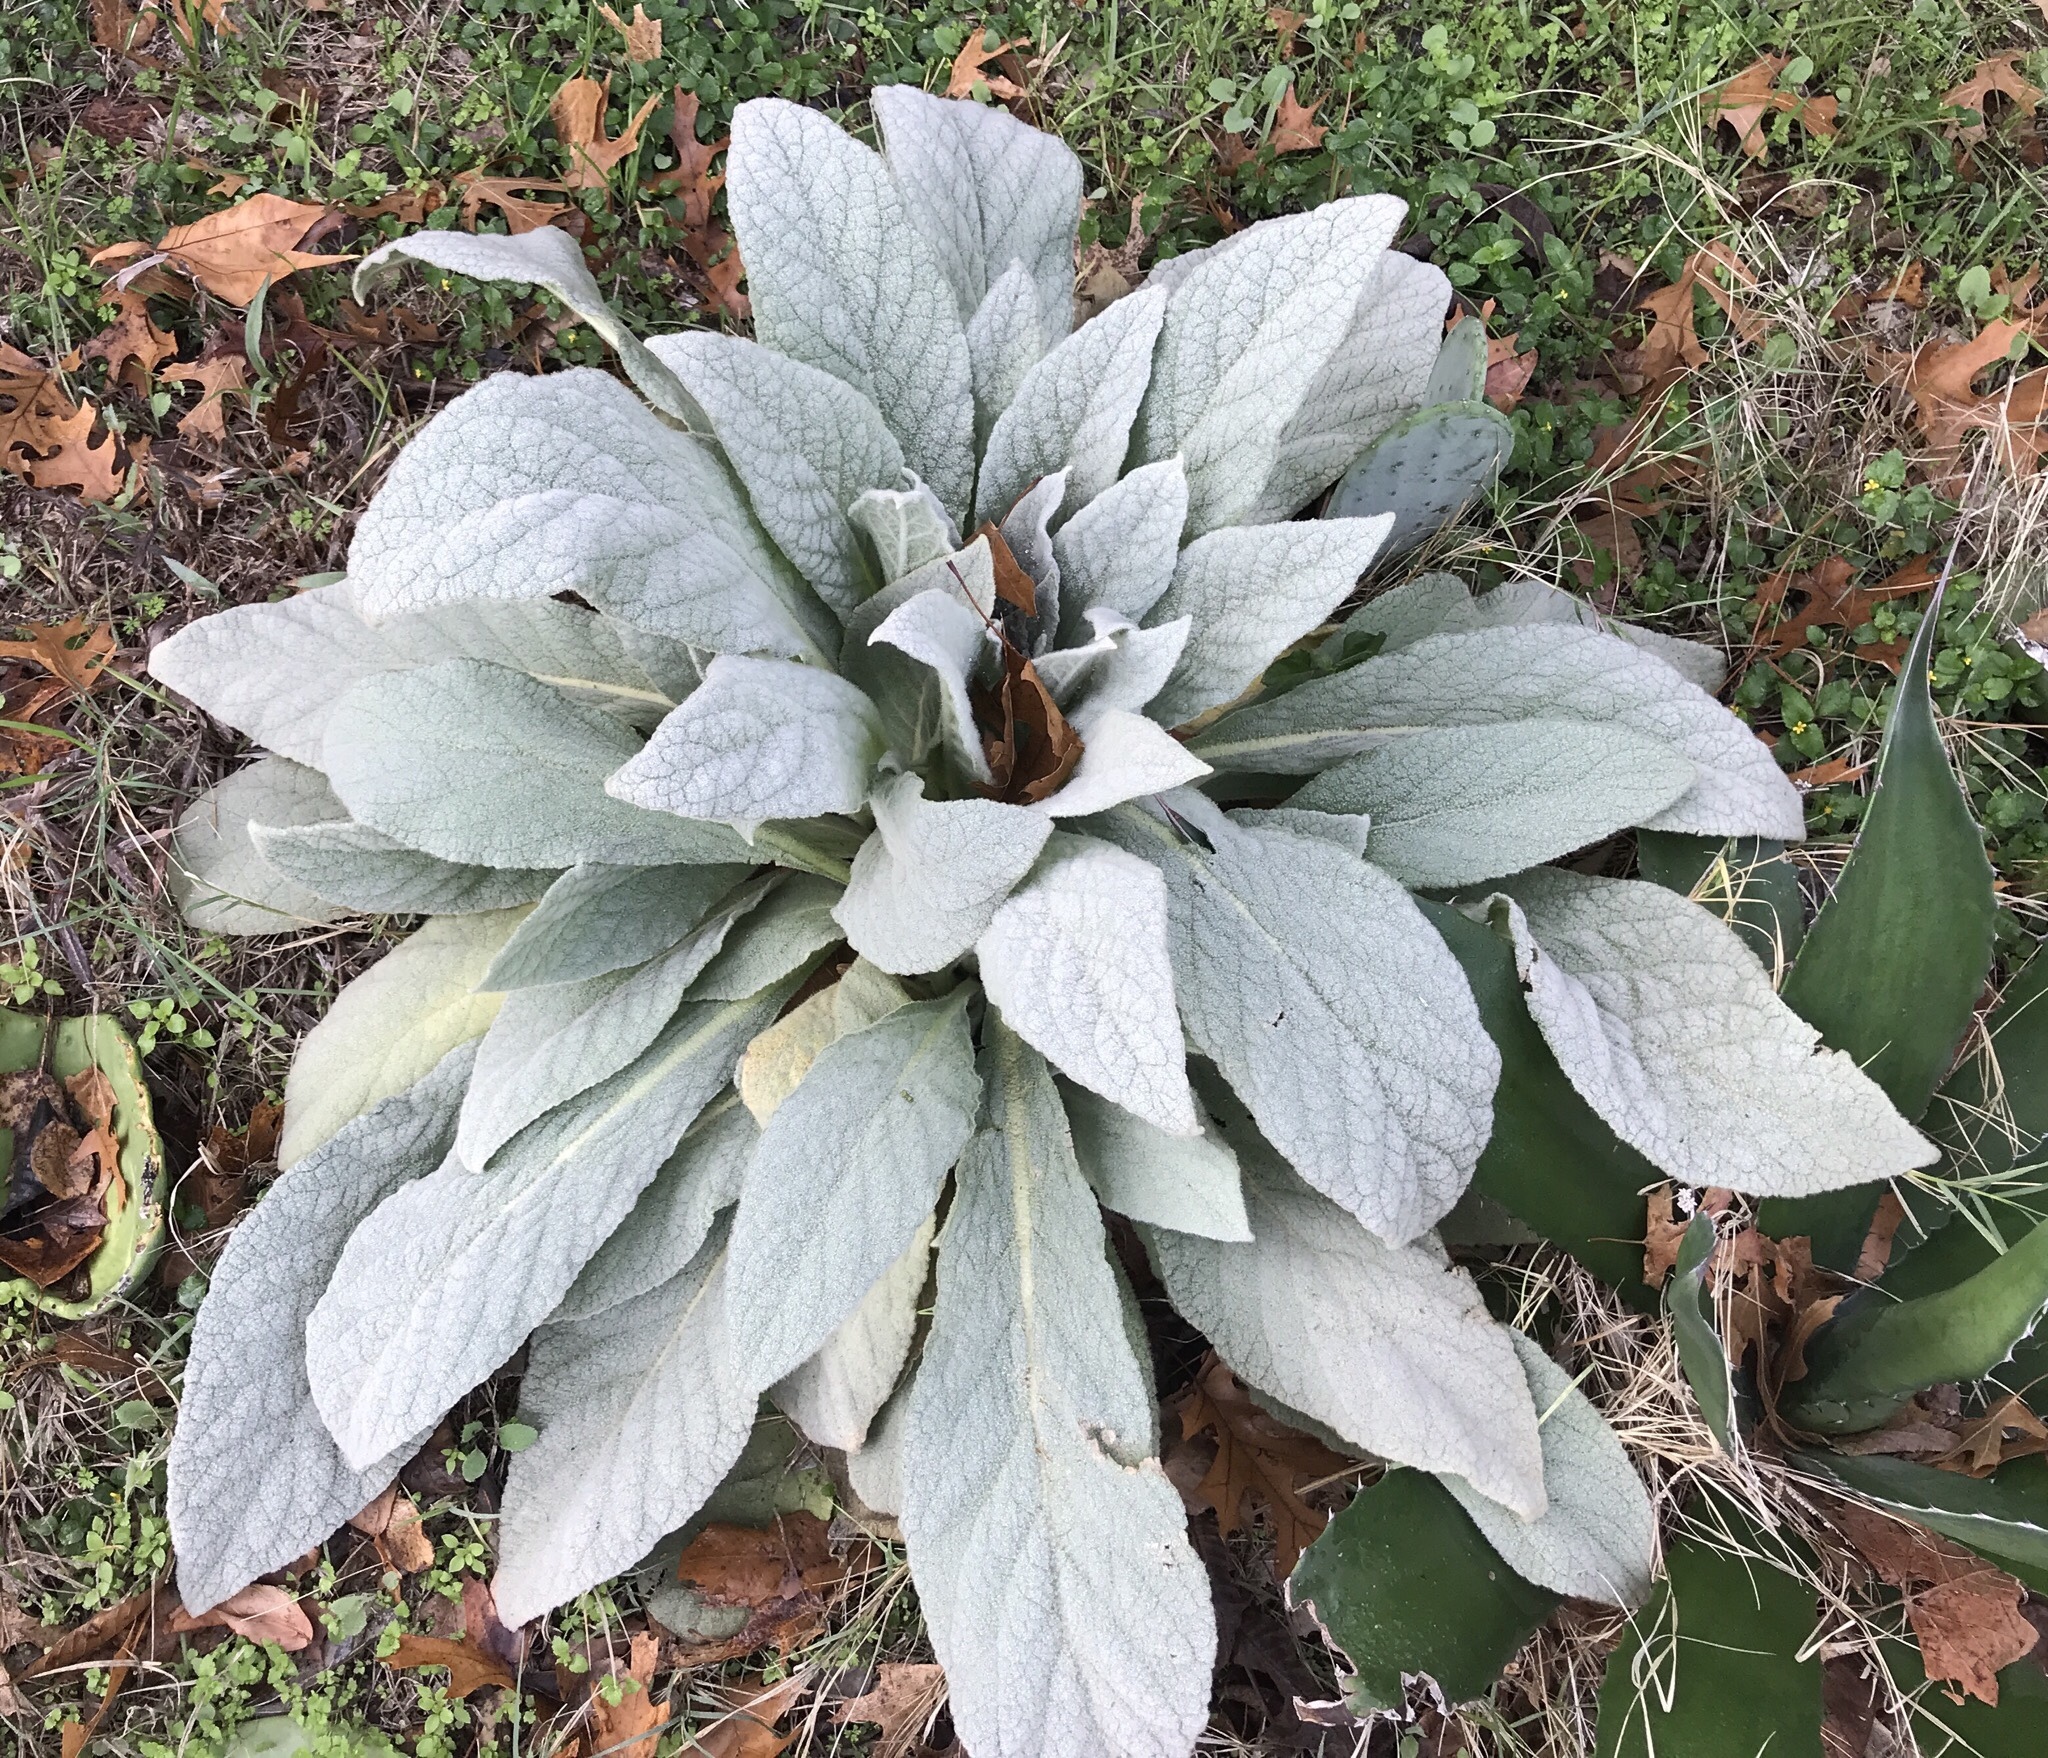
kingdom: Plantae
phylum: Tracheophyta
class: Magnoliopsida
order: Lamiales
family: Scrophulariaceae
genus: Verbascum
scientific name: Verbascum thapsus
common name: Common mullein
